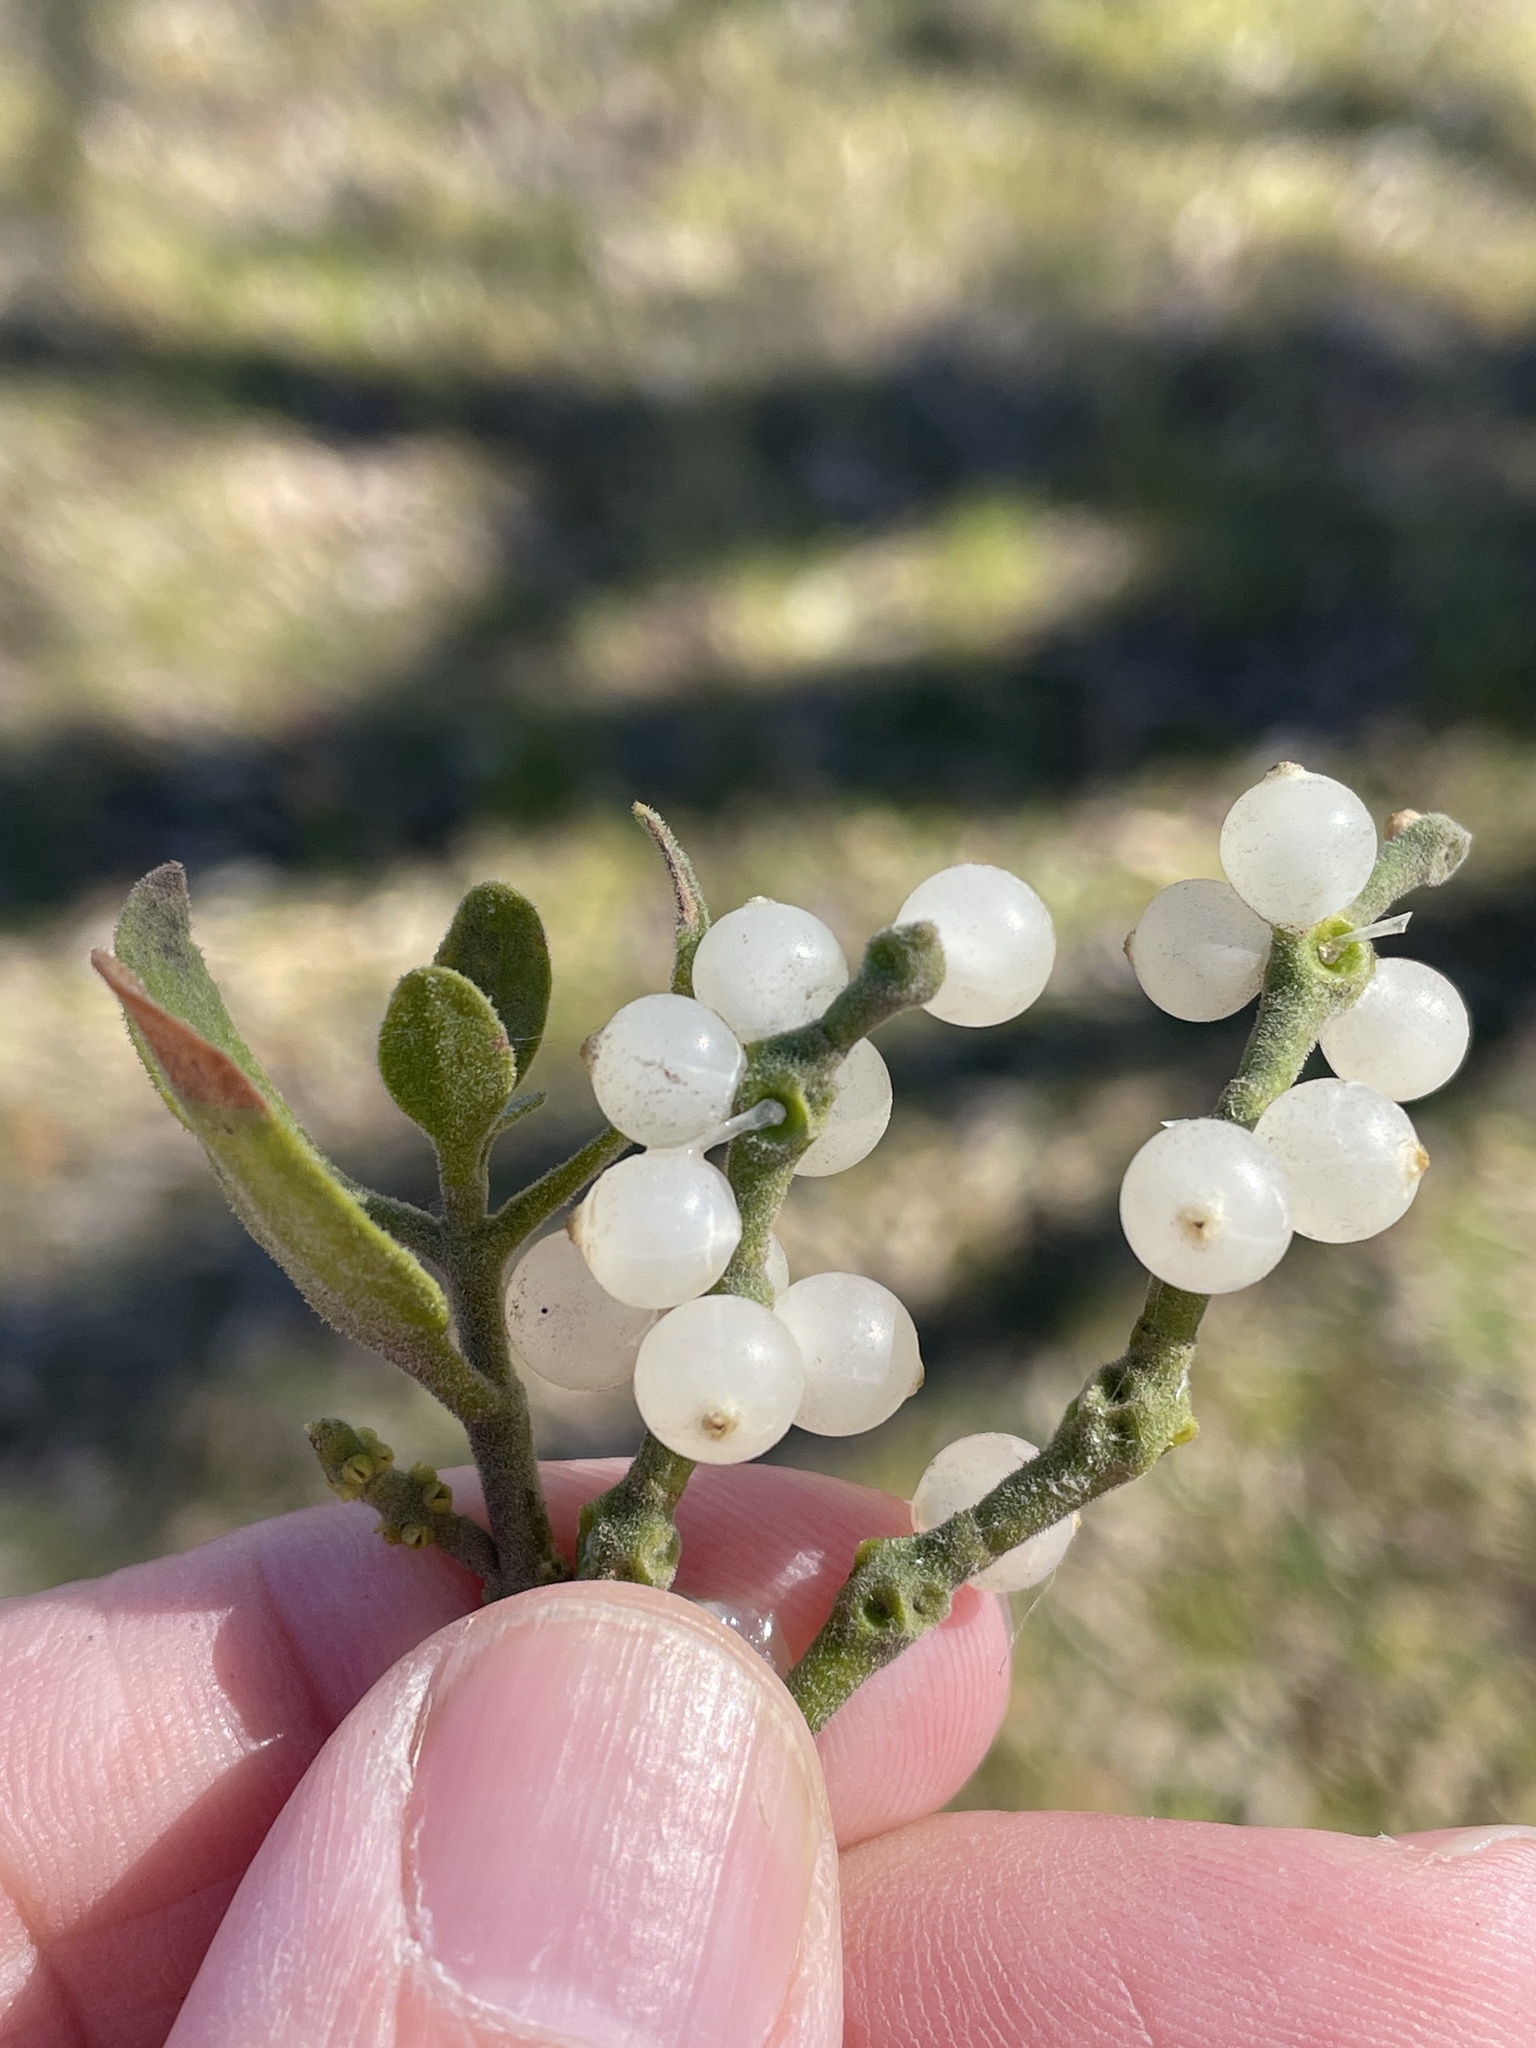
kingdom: Plantae
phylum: Tracheophyta
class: Magnoliopsida
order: Santalales
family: Viscaceae
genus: Phoradendron
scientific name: Phoradendron leucarpum
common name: Pacific mistletoe
